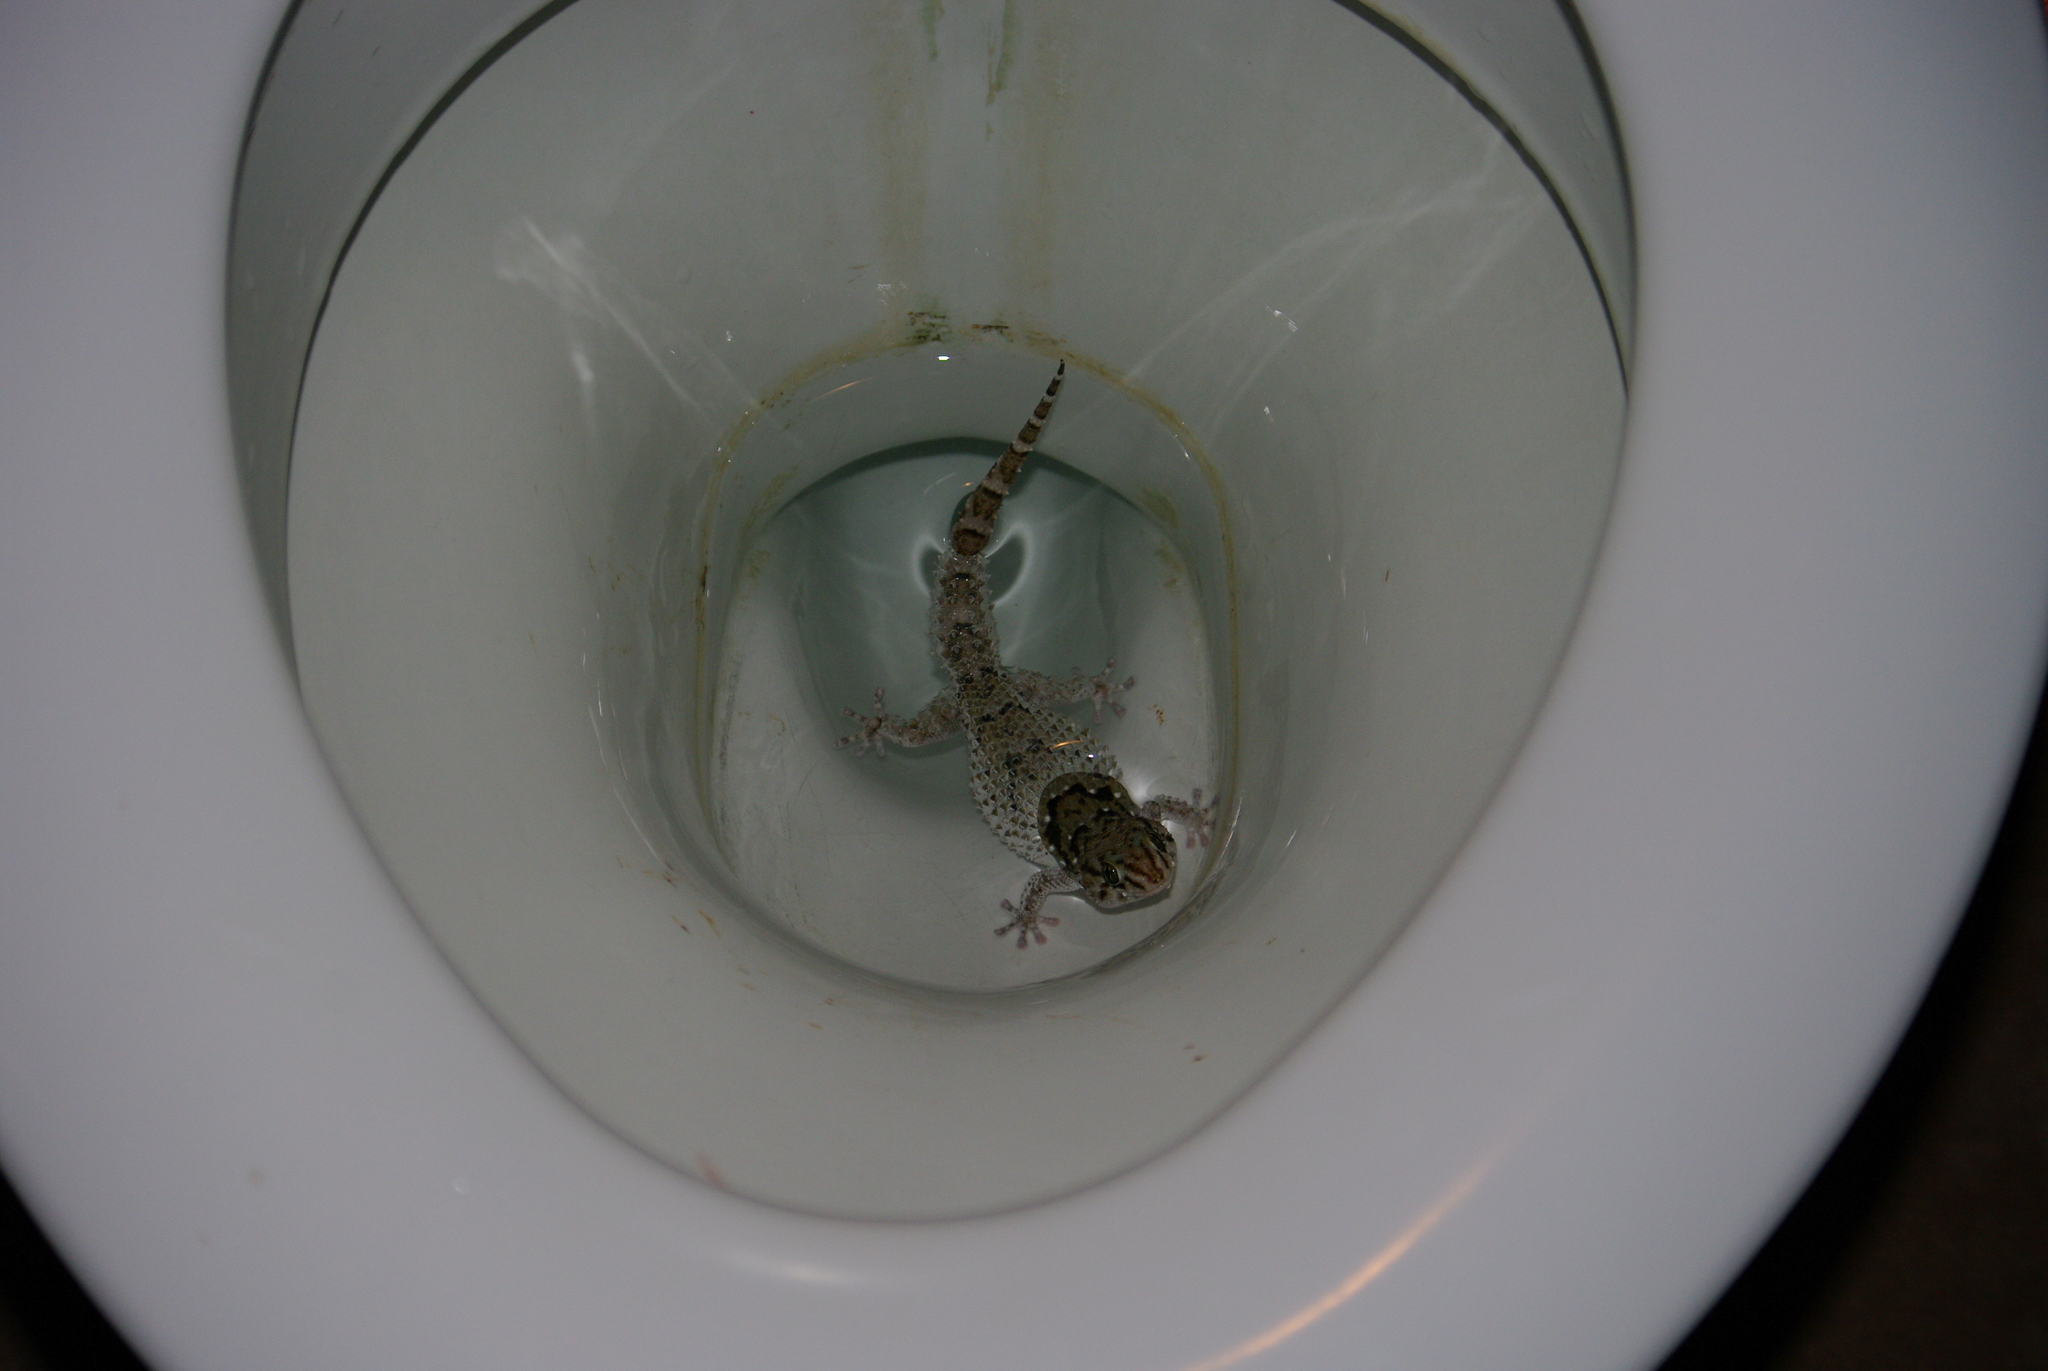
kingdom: Animalia
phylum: Chordata
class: Squamata
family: Gekkonidae
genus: Chondrodactylus
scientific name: Chondrodactylus turneri
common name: Turner’s gecko
